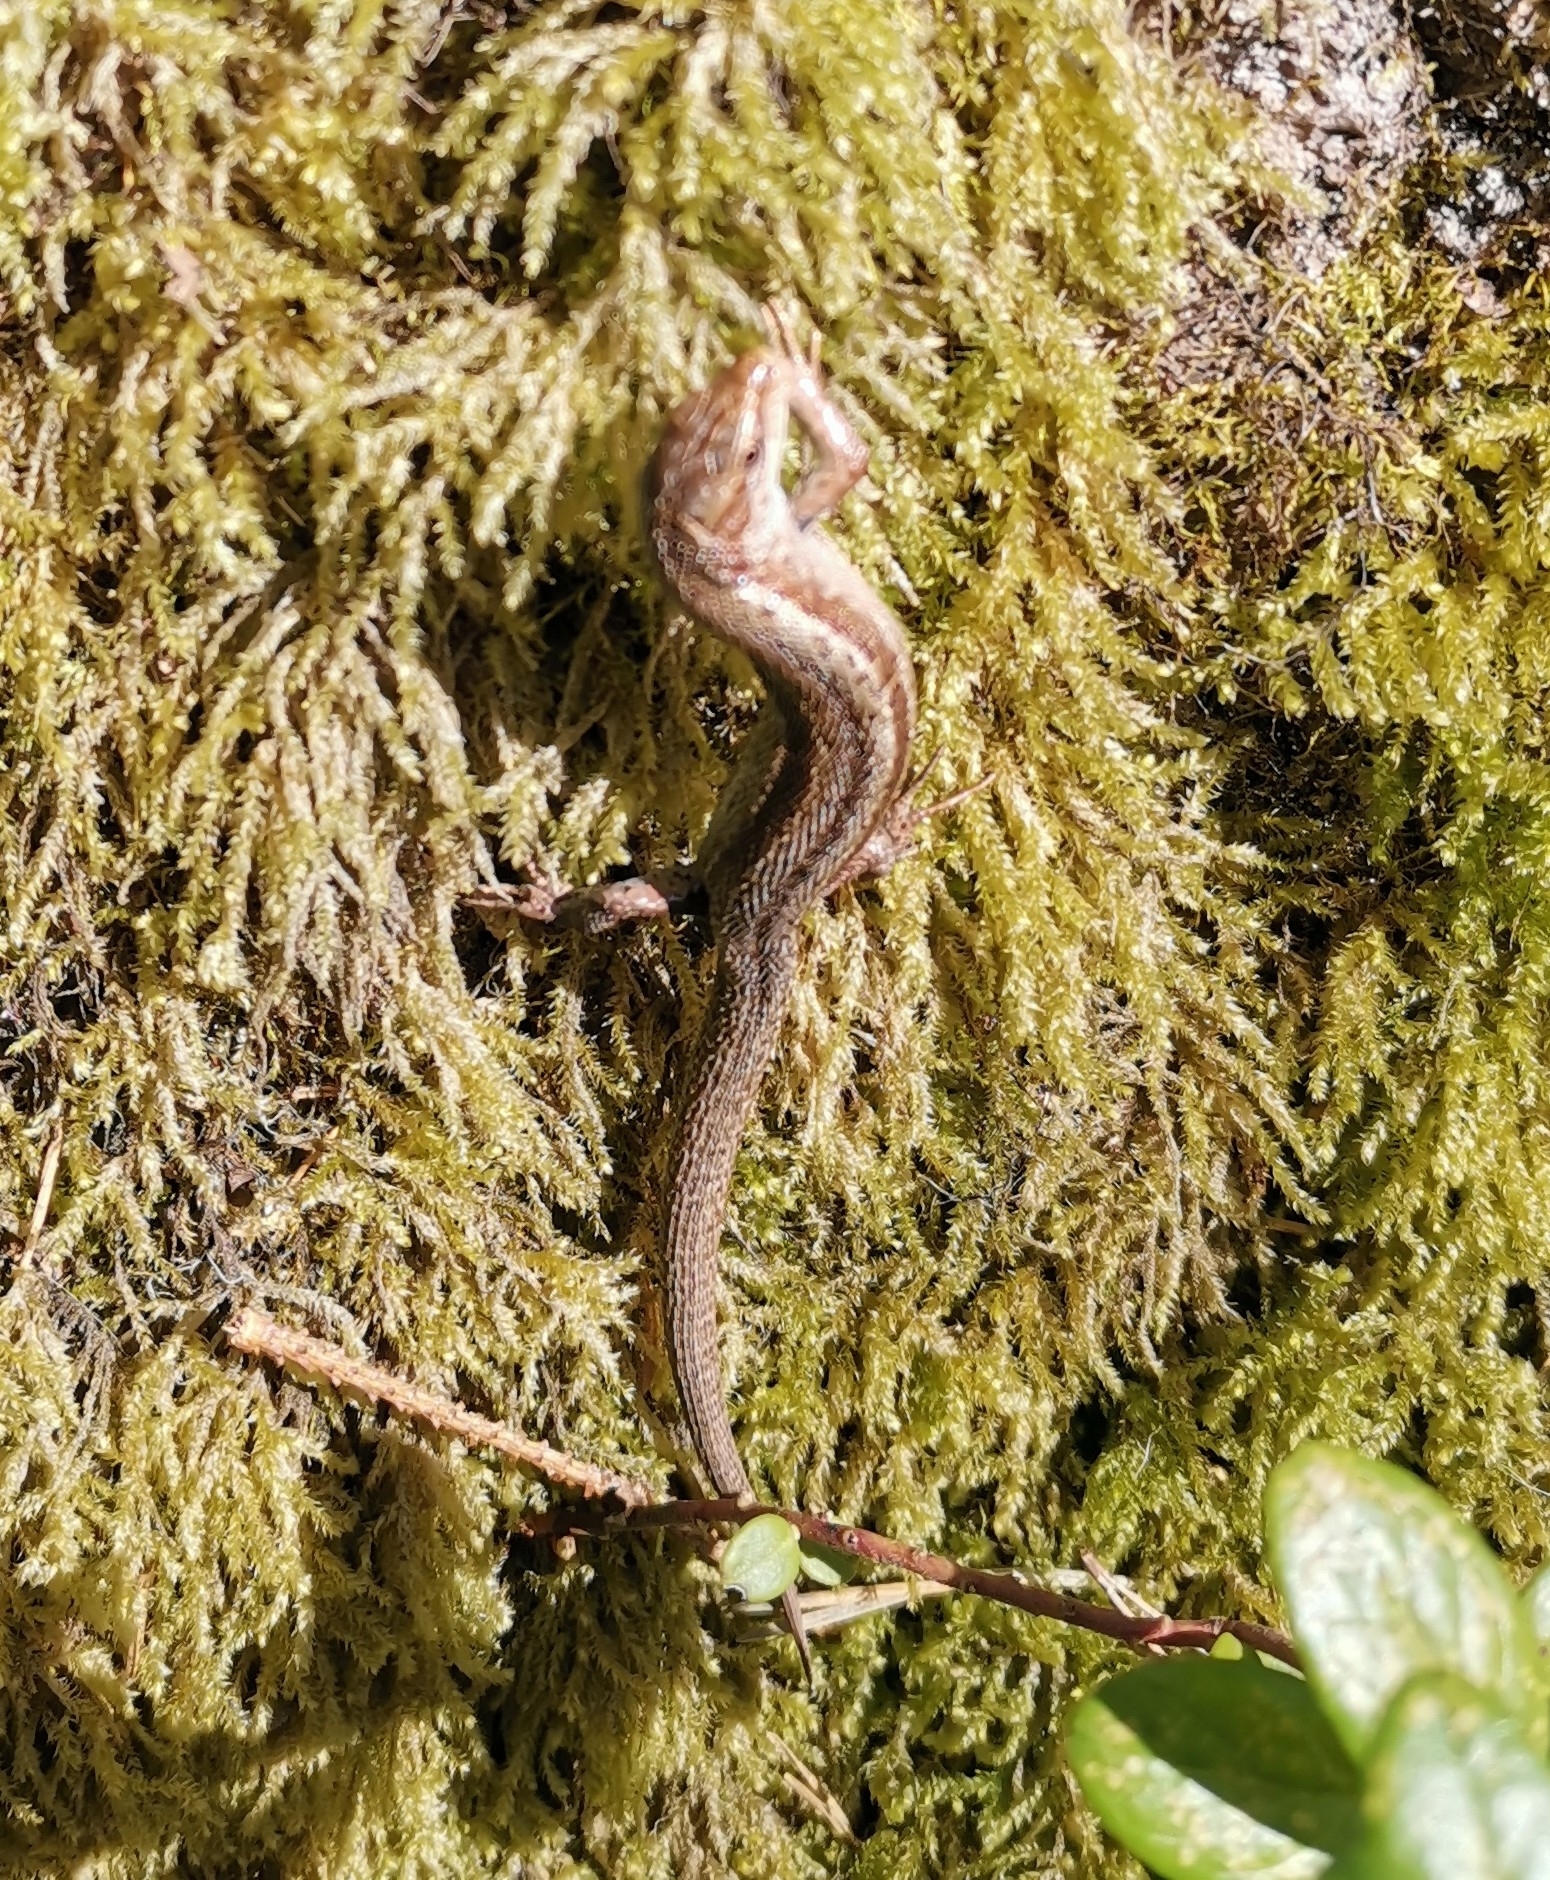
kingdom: Animalia
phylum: Chordata
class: Squamata
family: Lacertidae
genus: Zootoca
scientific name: Zootoca vivipara
